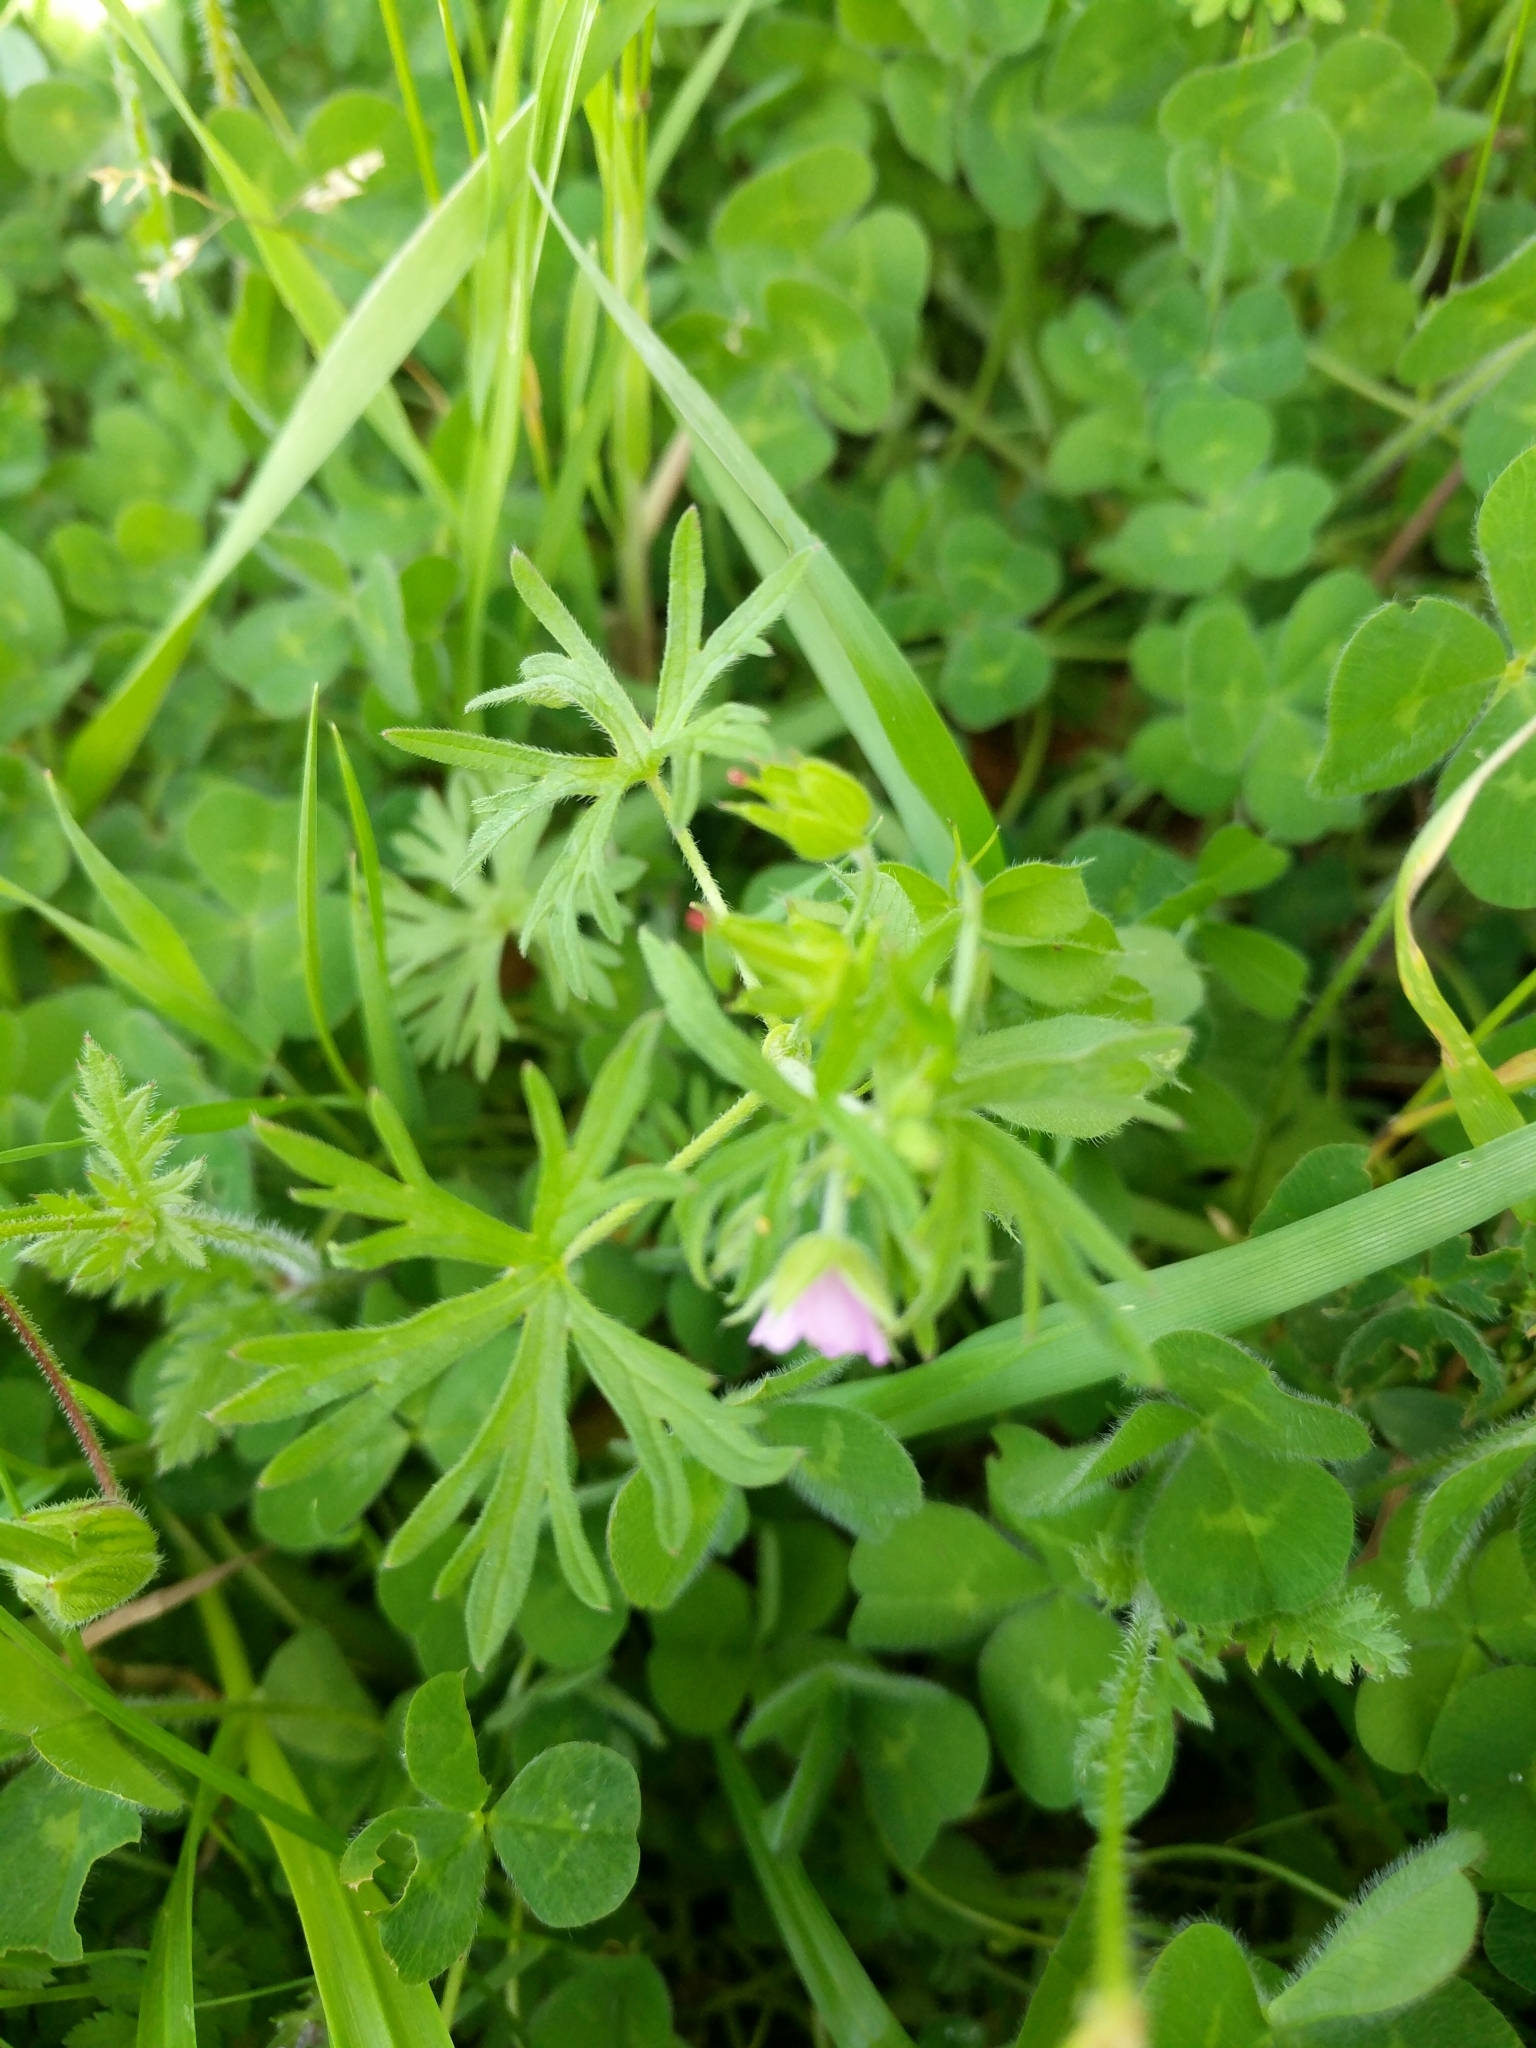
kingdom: Plantae
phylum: Tracheophyta
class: Magnoliopsida
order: Geraniales
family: Geraniaceae
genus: Geranium
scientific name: Geranium dissectum
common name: Cut-leaved crane's-bill
